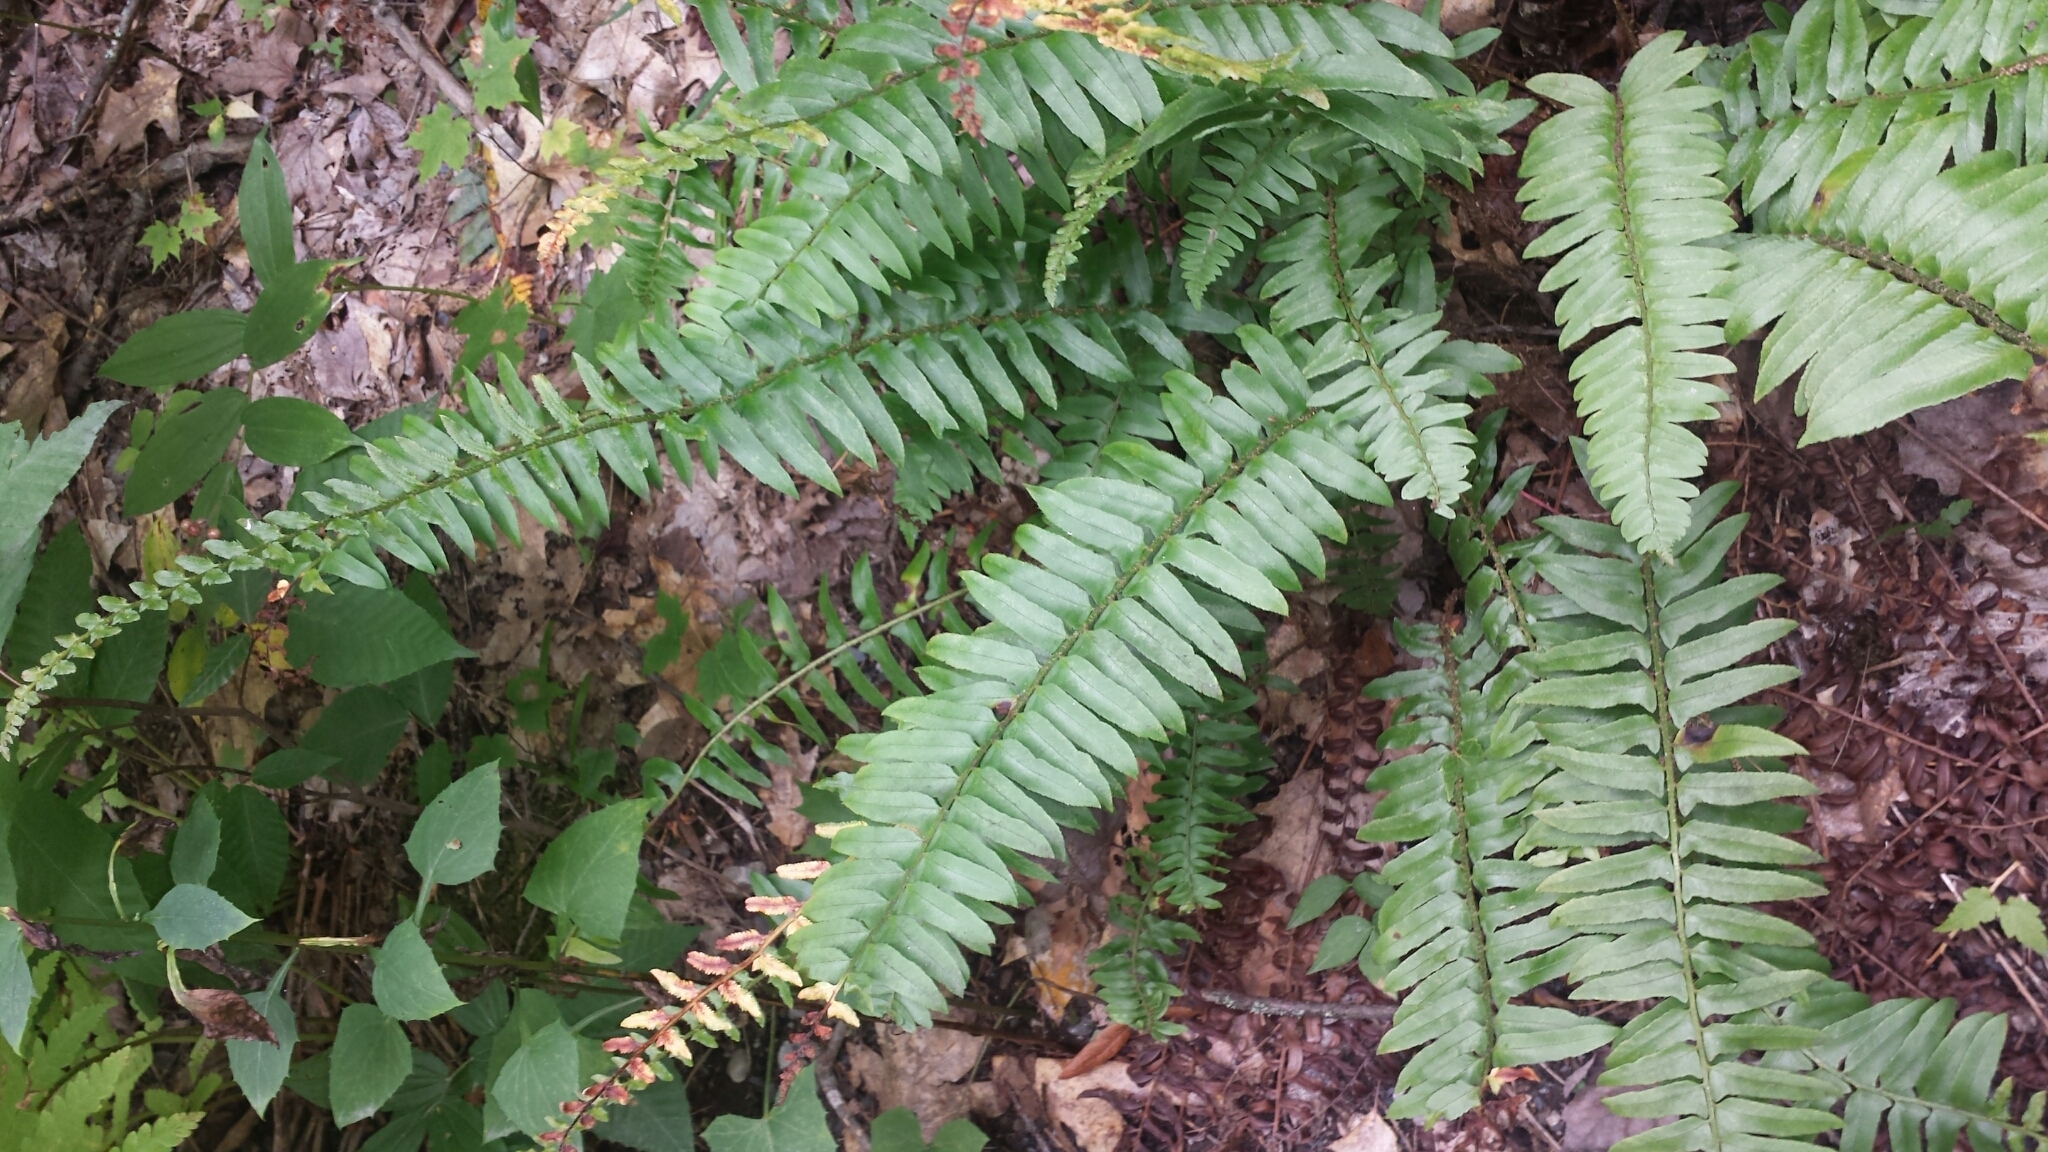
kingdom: Plantae
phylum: Tracheophyta
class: Polypodiopsida
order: Polypodiales
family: Dryopteridaceae
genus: Polystichum
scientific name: Polystichum acrostichoides
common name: Christmas fern
